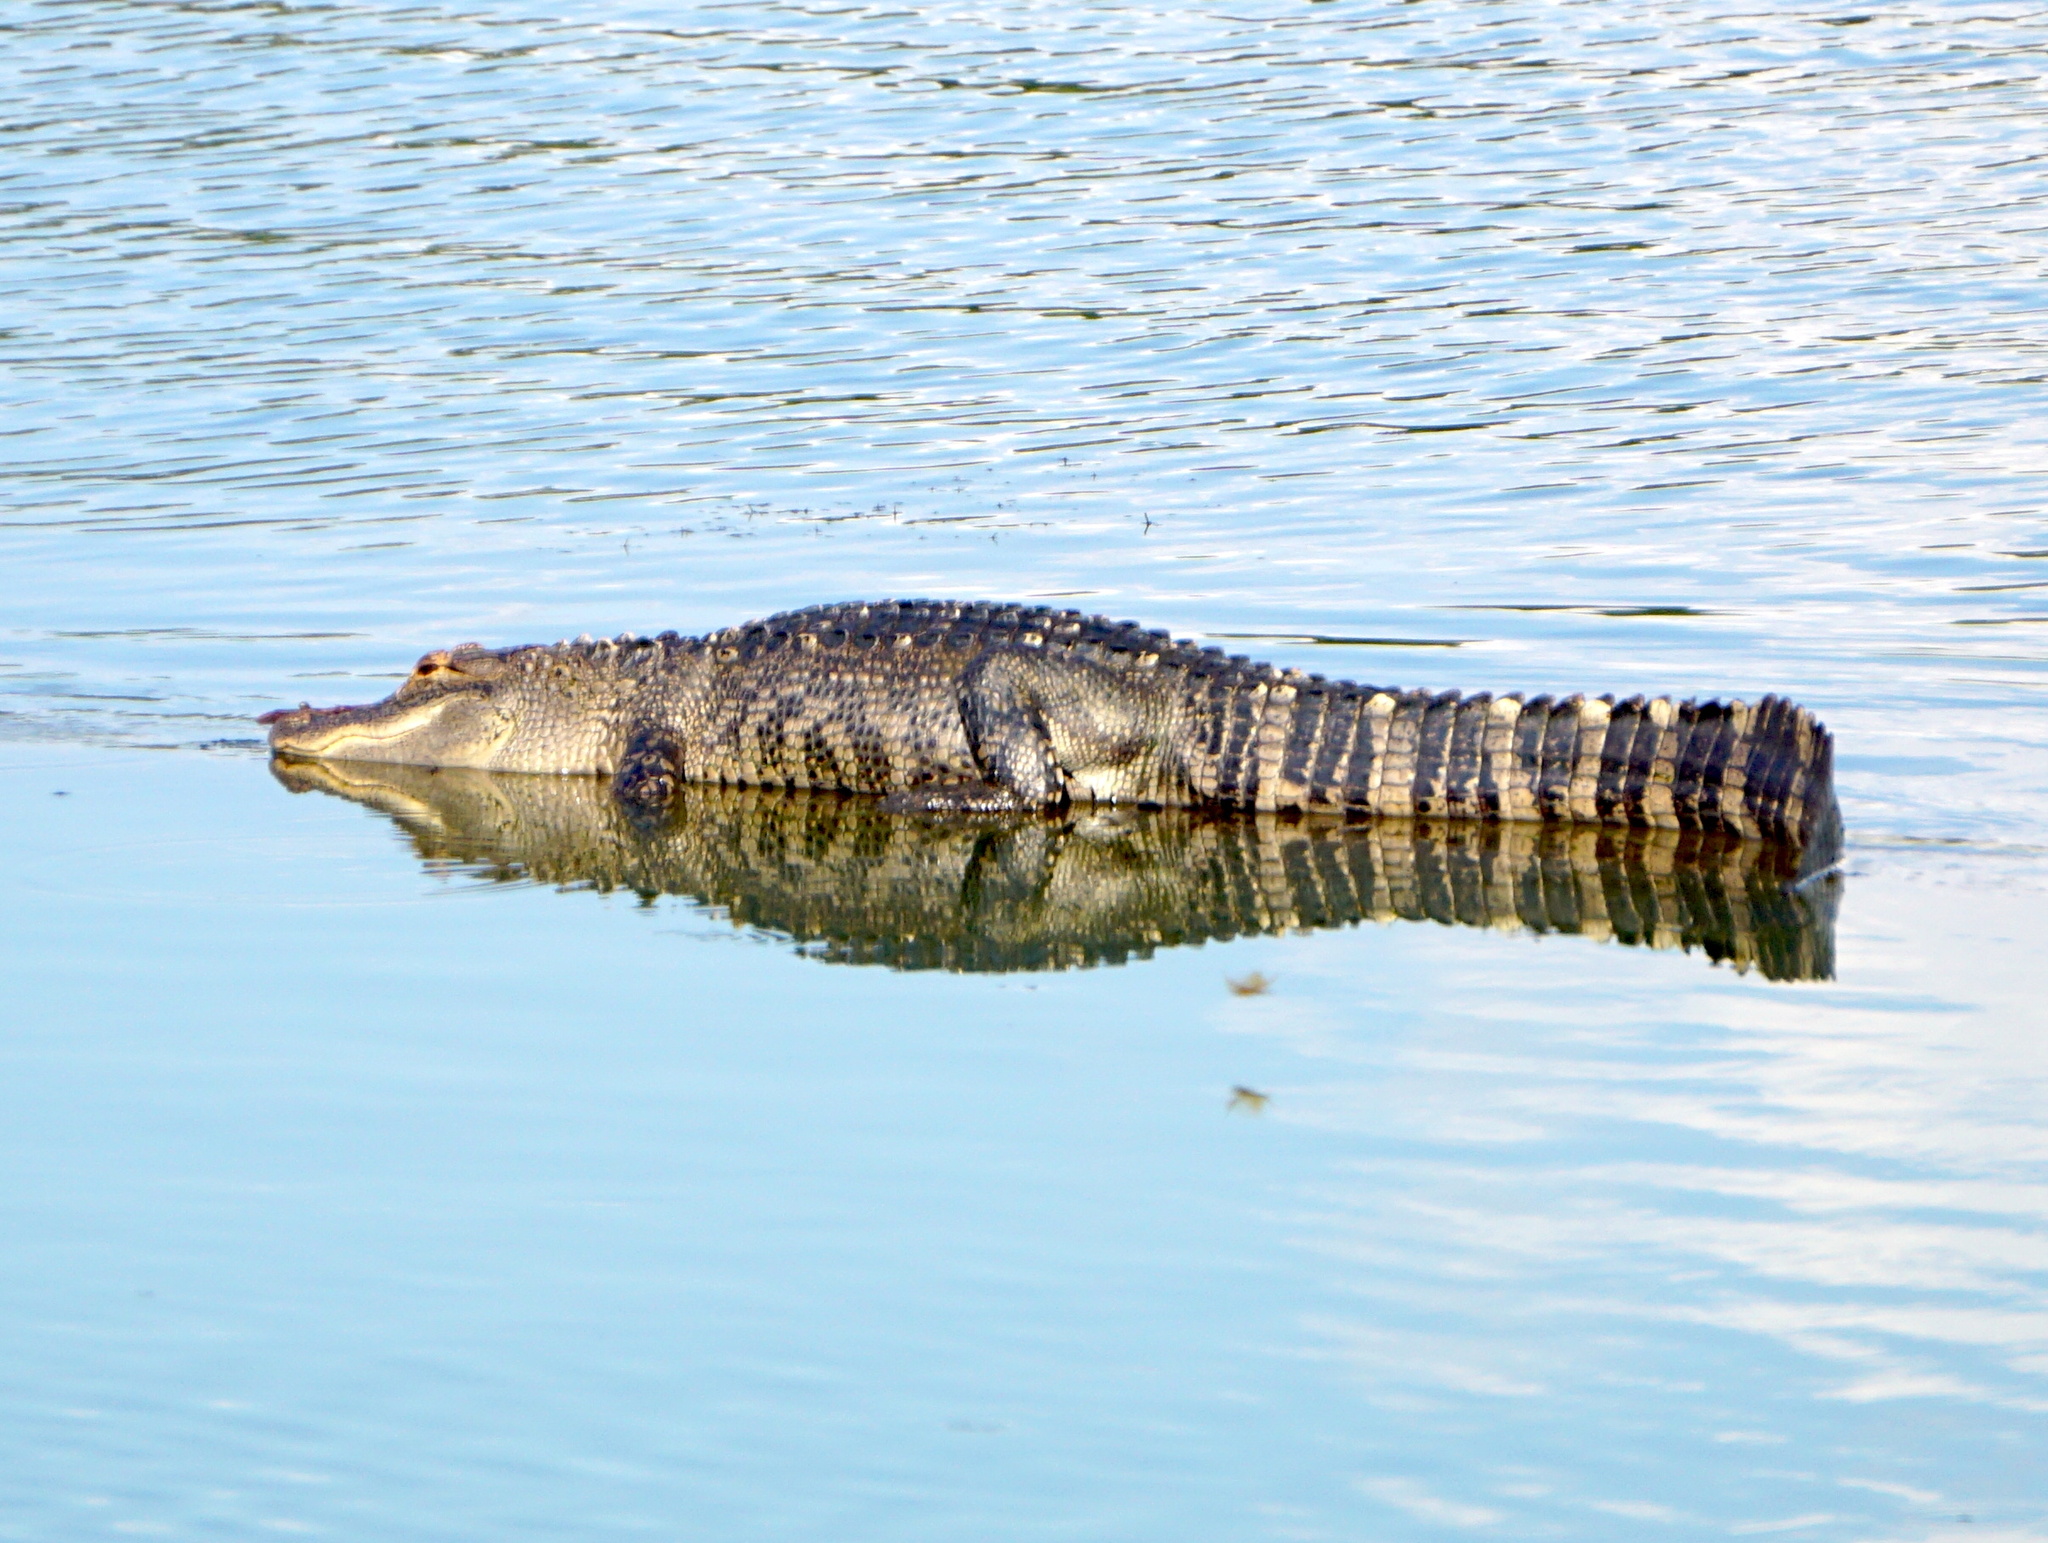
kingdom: Animalia
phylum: Chordata
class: Crocodylia
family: Alligatoridae
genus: Alligator
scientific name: Alligator mississippiensis
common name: American alligator
